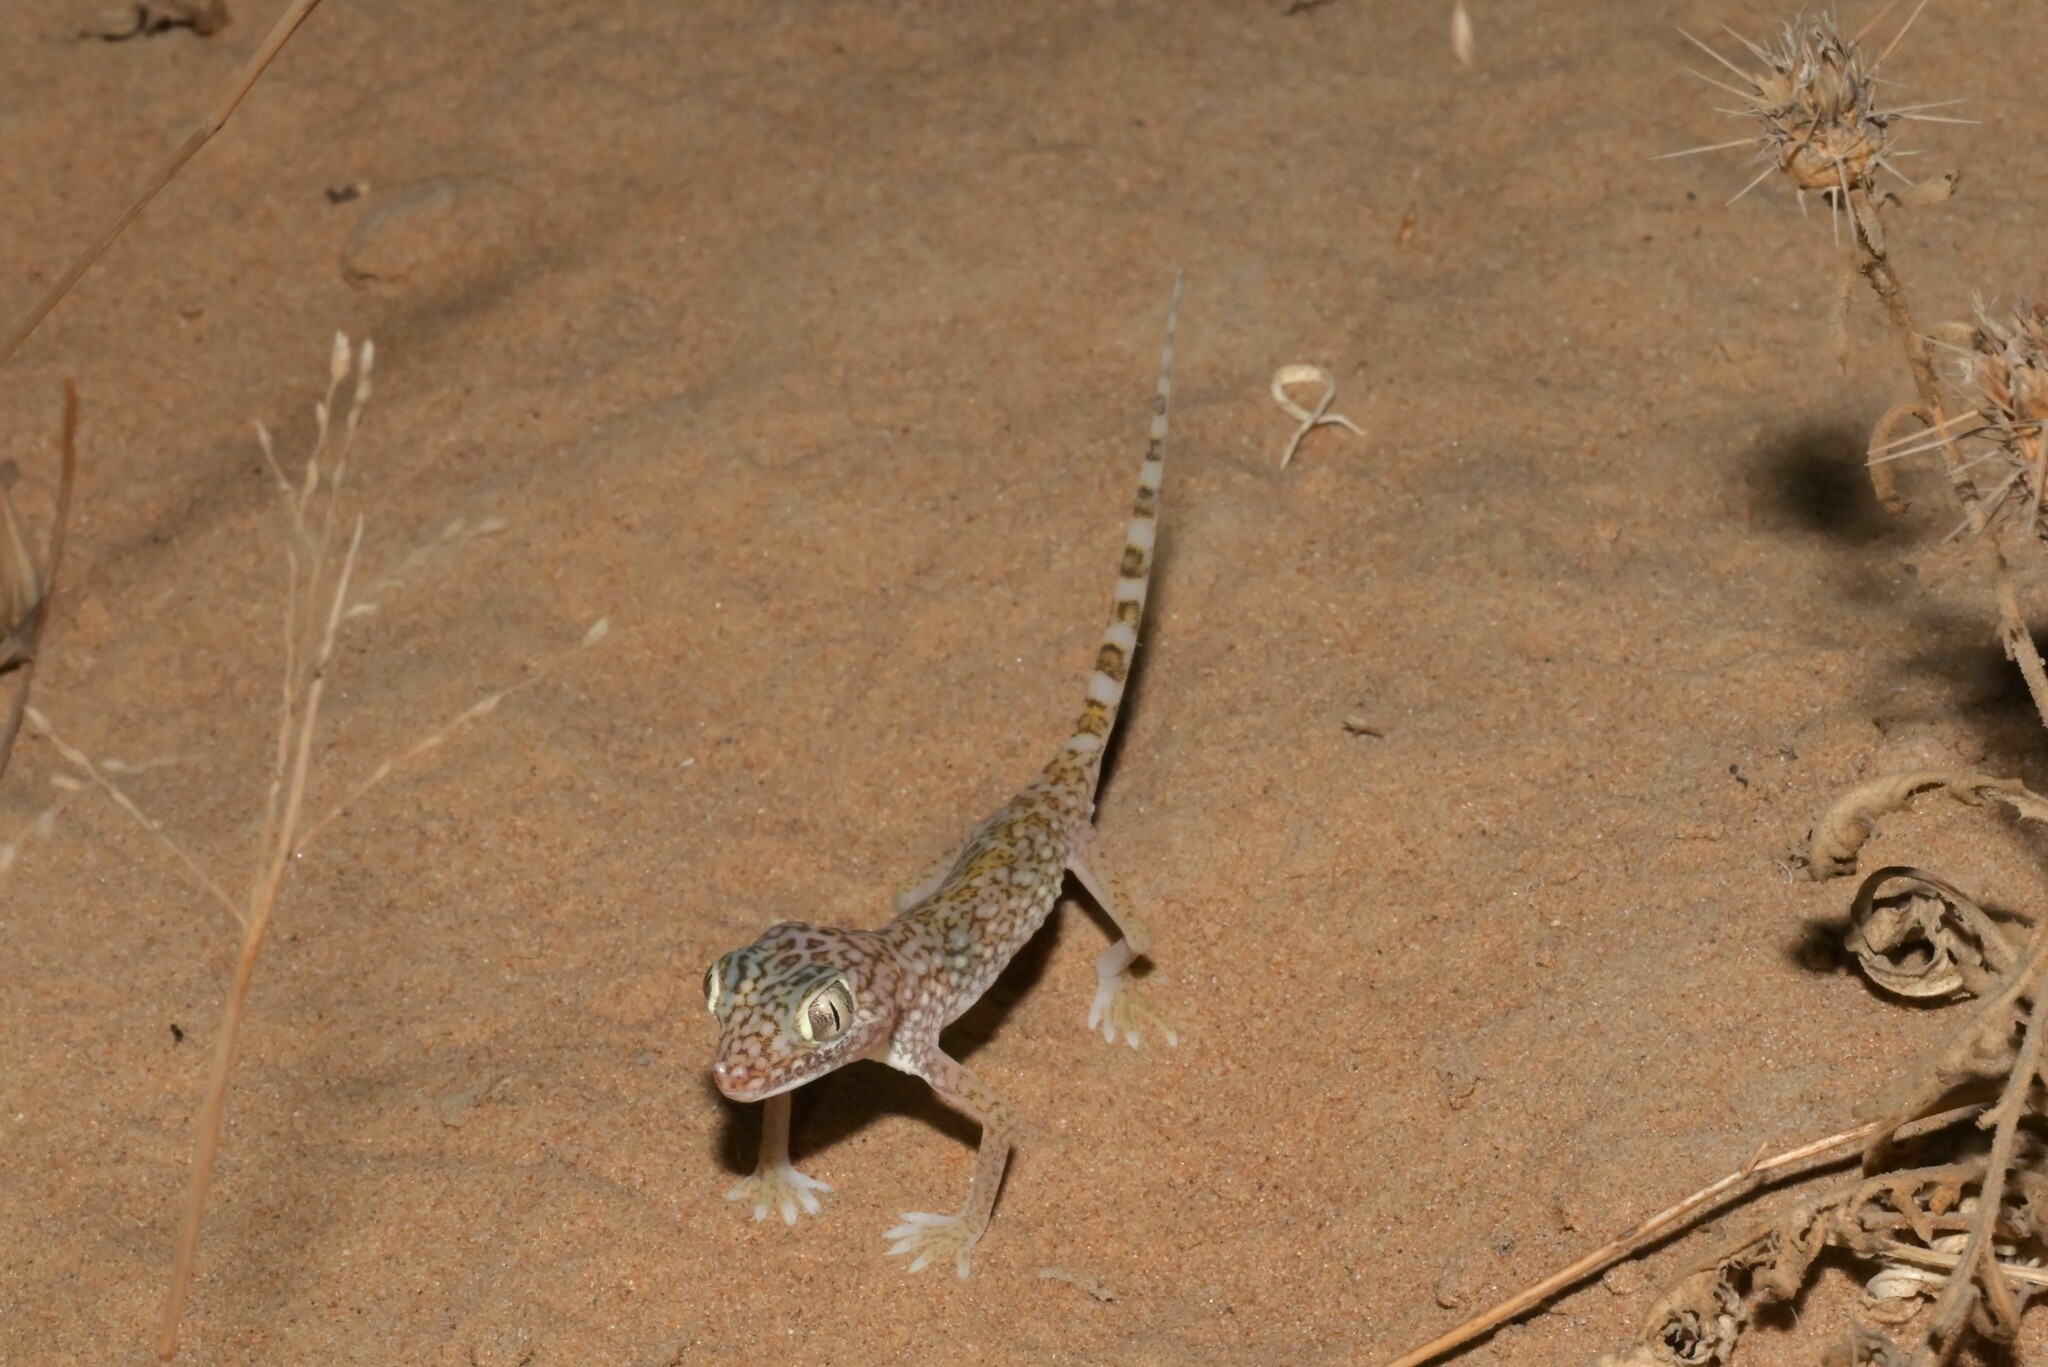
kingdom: Animalia
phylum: Chordata
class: Squamata
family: Gekkonidae
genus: Stenodactylus
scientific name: Stenodactylus doriae
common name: Dune sand gecko
